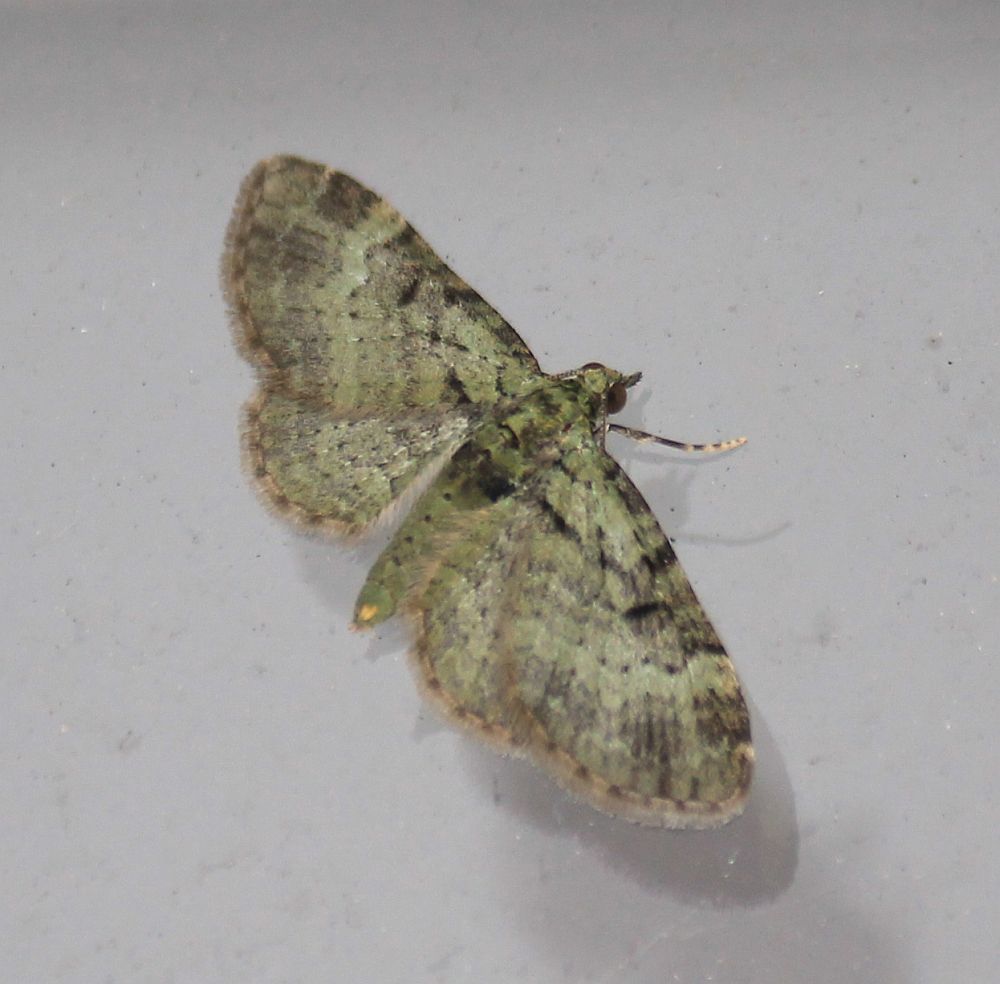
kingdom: Animalia
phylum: Arthropoda
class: Insecta
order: Lepidoptera
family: Geometridae
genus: Pasiphila
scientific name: Pasiphila rectangulata
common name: Green pug
